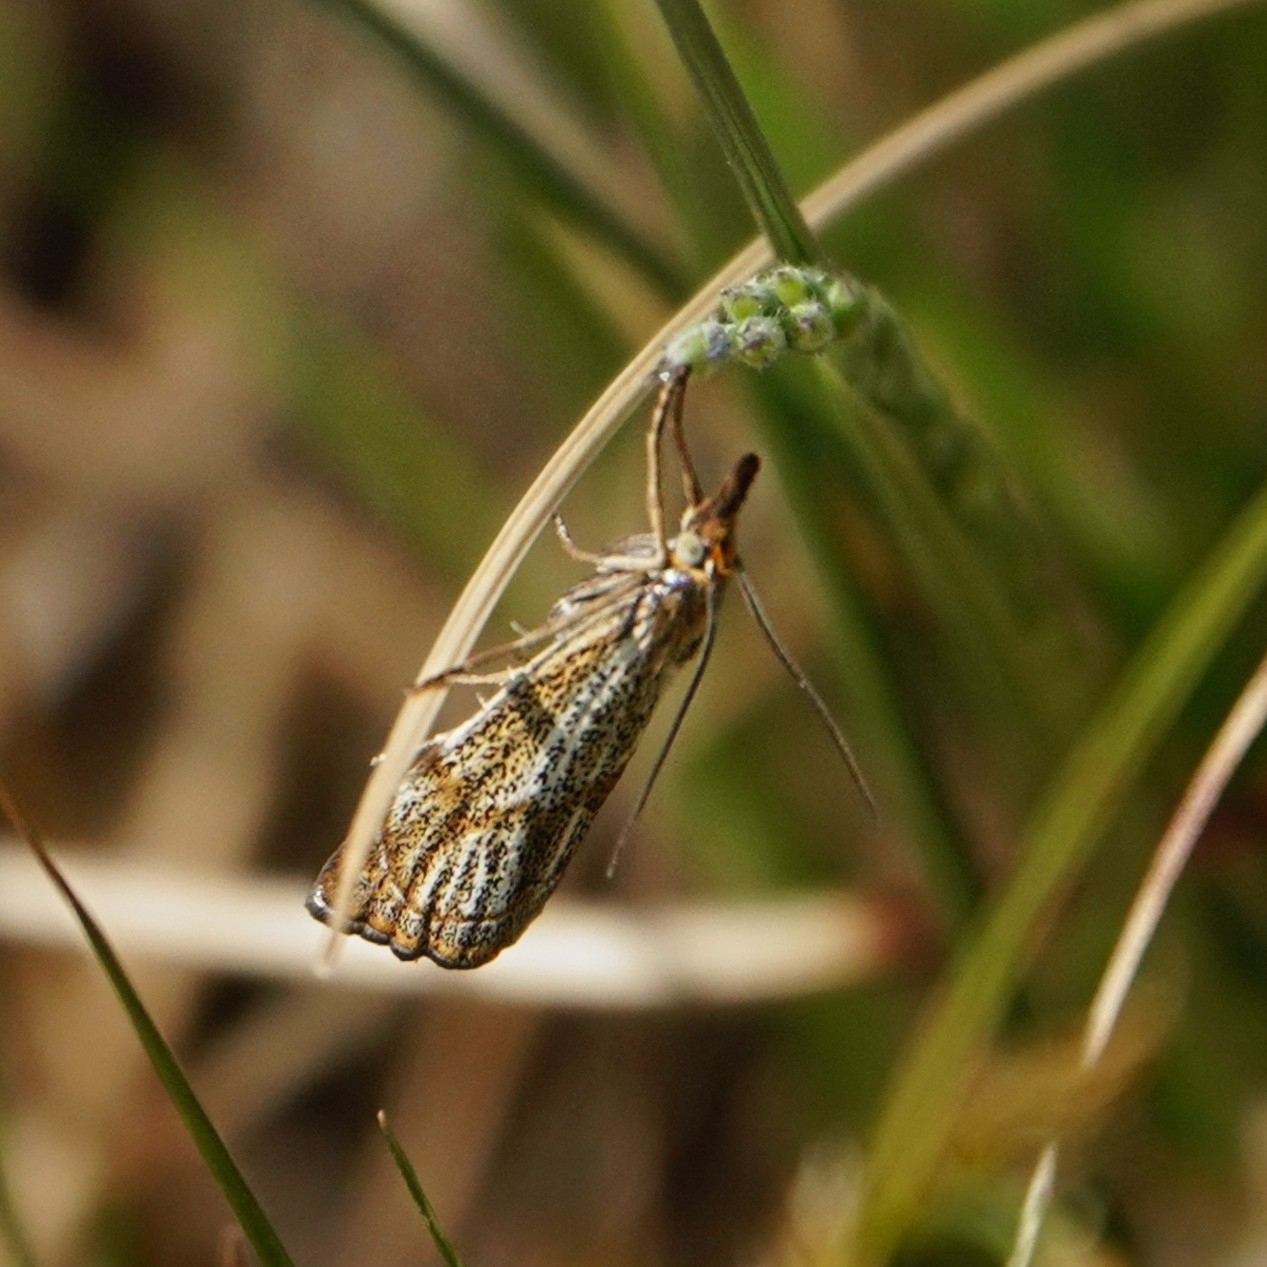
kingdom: Animalia
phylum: Arthropoda
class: Insecta
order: Lepidoptera
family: Crambidae
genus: Thisanotia
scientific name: Thisanotia chrysonuchella
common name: Powdered grass-veneer
